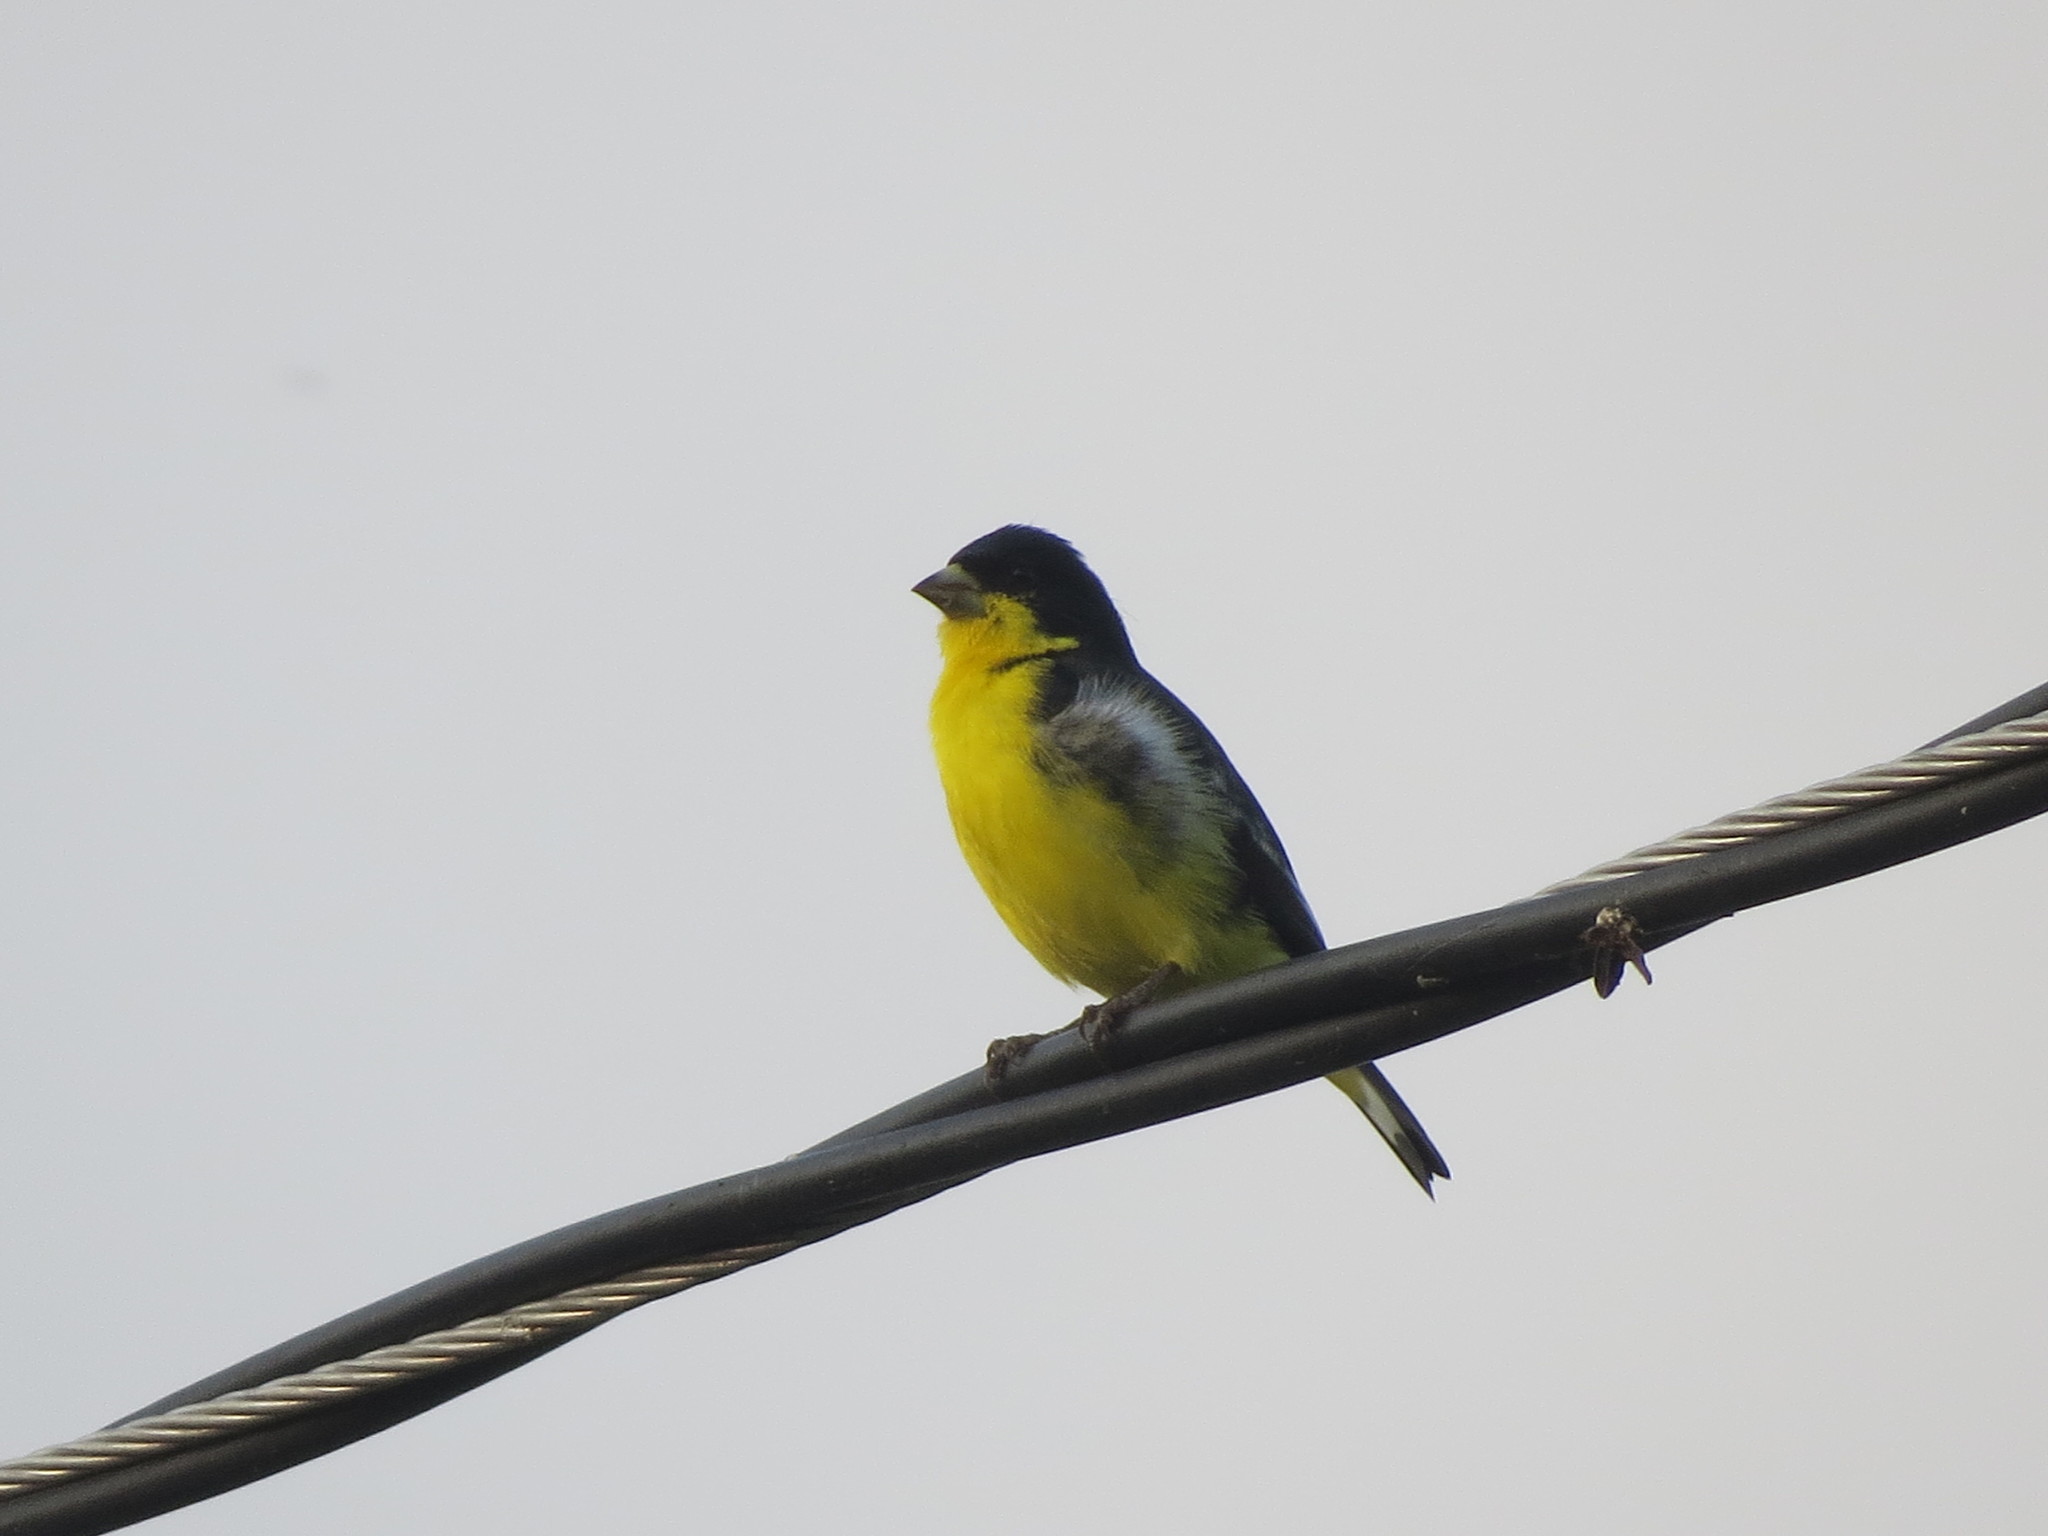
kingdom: Animalia
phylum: Chordata
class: Aves
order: Passeriformes
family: Fringillidae
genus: Spinus
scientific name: Spinus psaltria
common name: Lesser goldfinch
